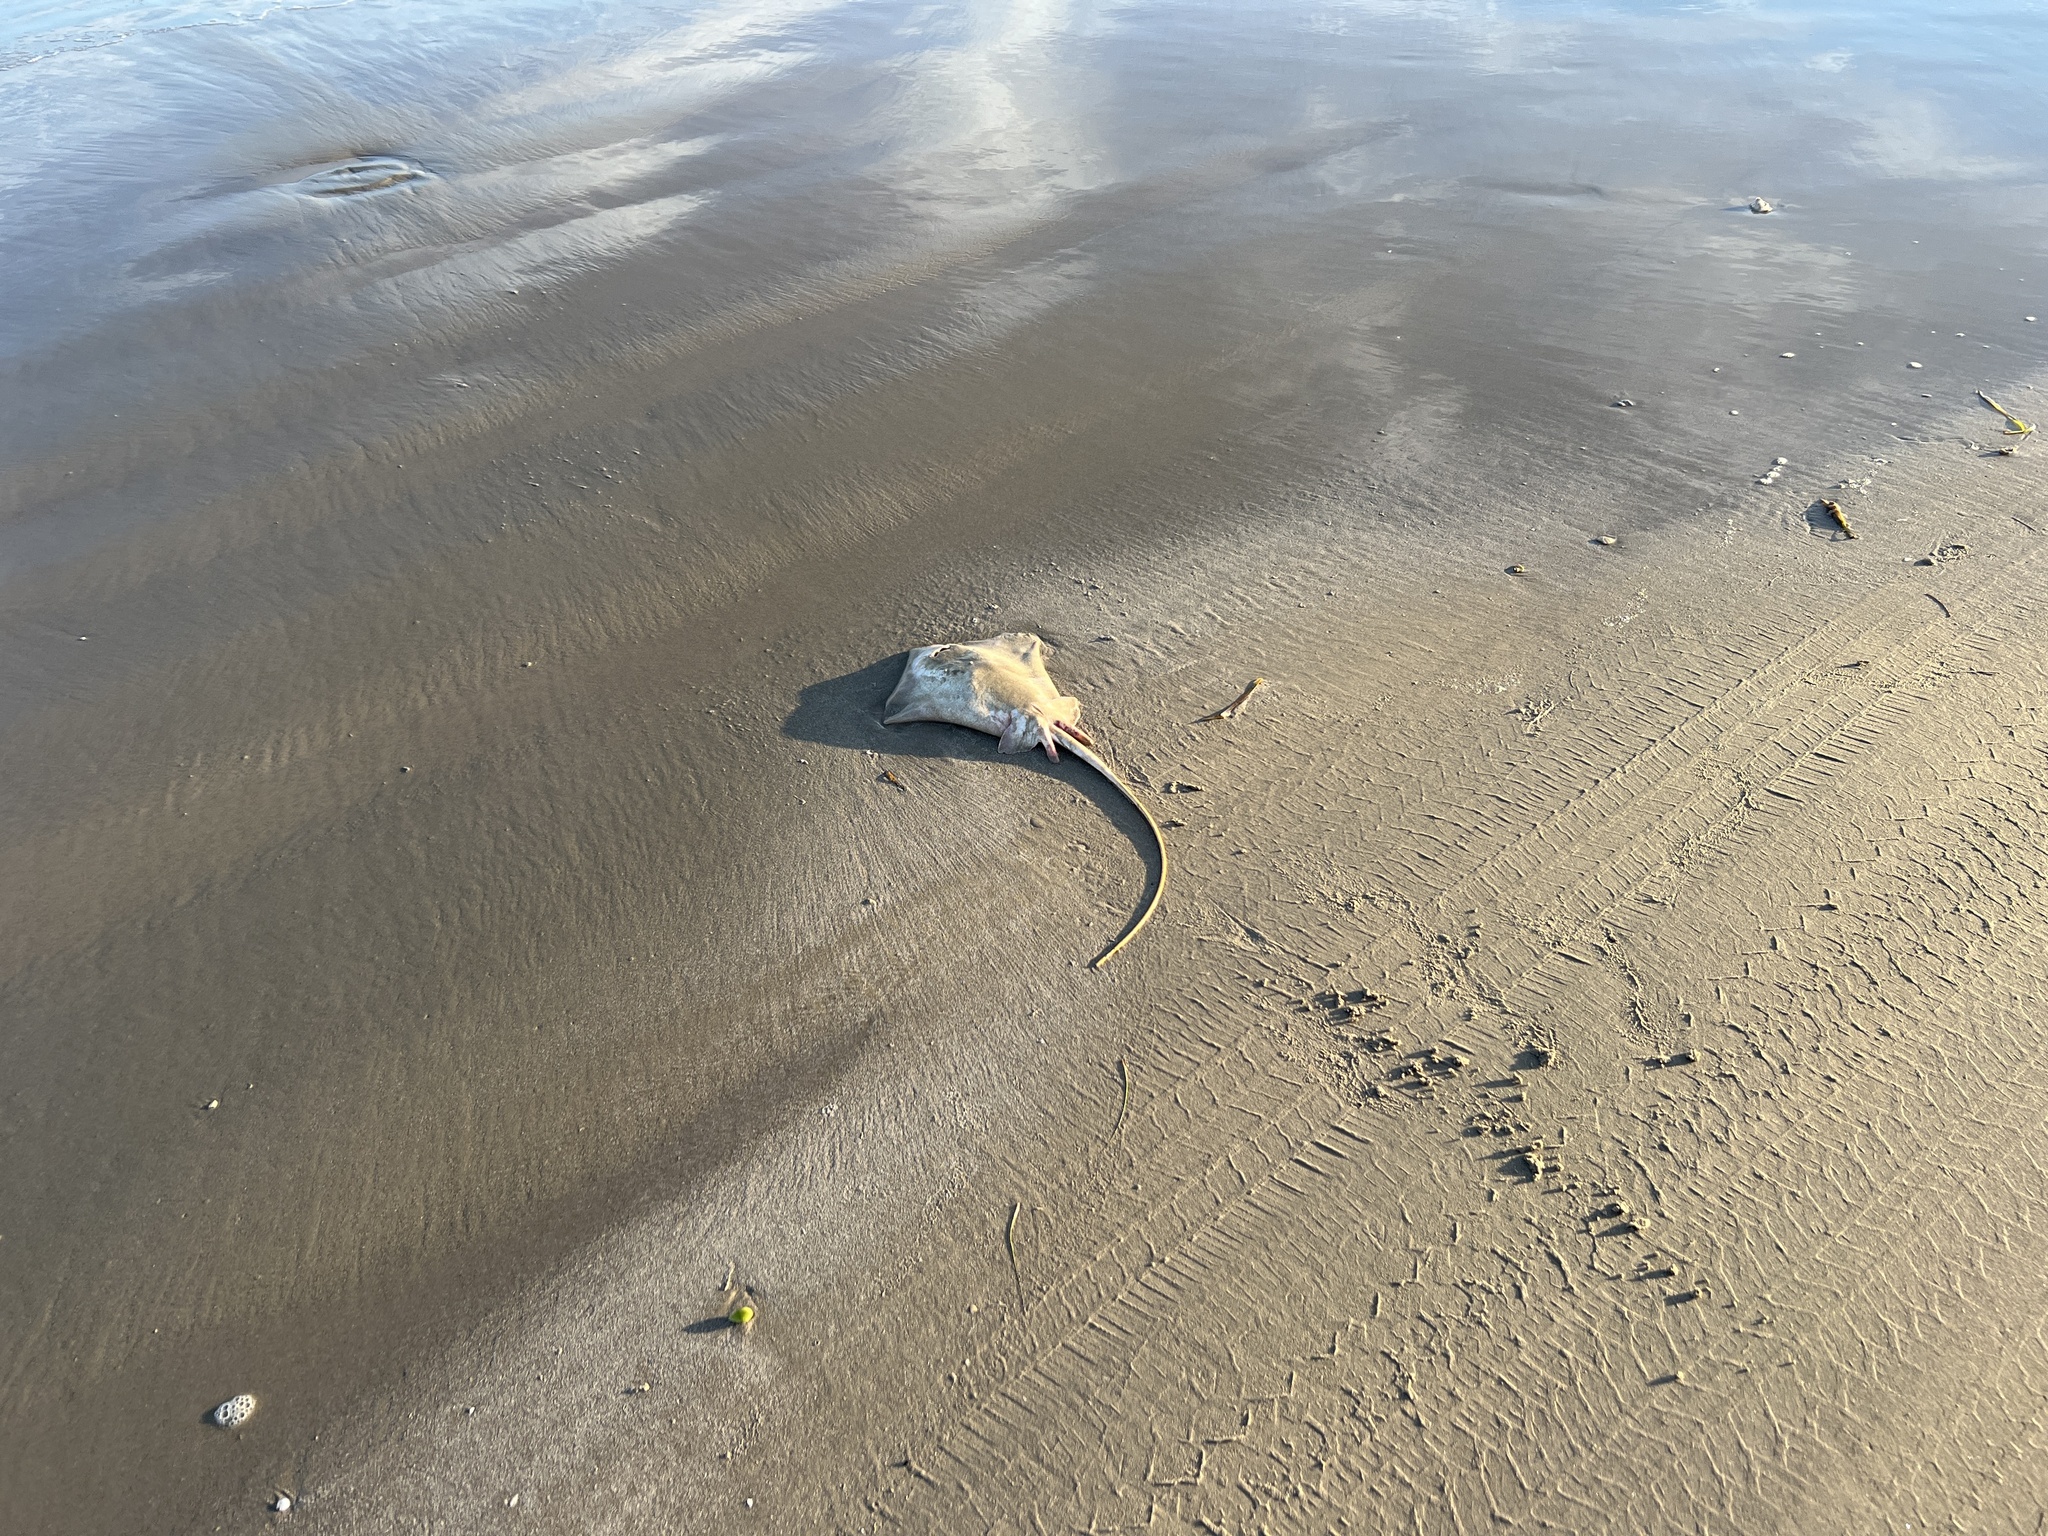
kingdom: Animalia
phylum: Chordata
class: Elasmobranchii
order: Myliobatiformes
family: Dasyatidae
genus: Hypanus
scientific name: Hypanus sabinus
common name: Atlantic stingray
